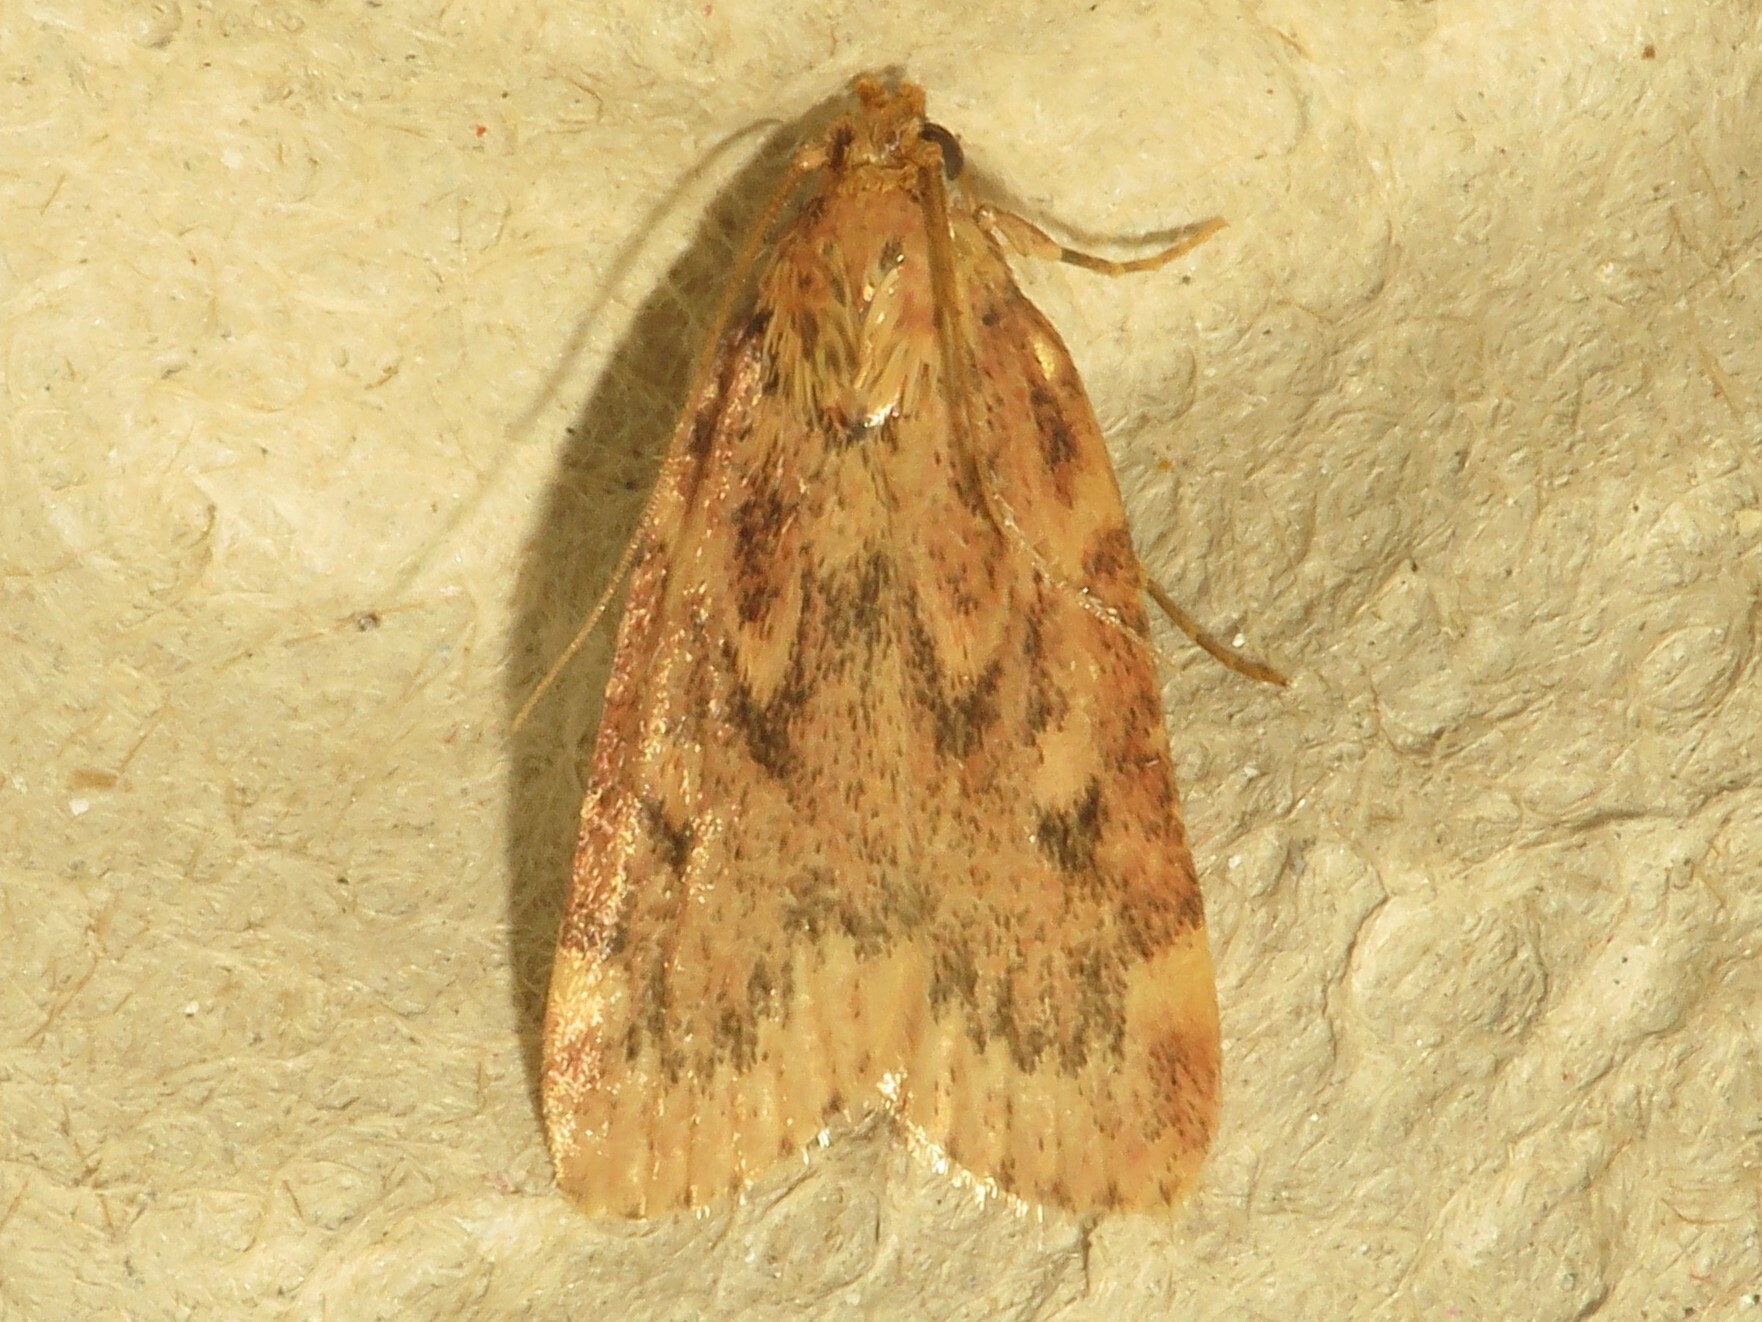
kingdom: Animalia
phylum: Arthropoda
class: Insecta
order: Lepidoptera
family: Pyralidae
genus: Aglossa
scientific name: Aglossa cuprina
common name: Grease moth
